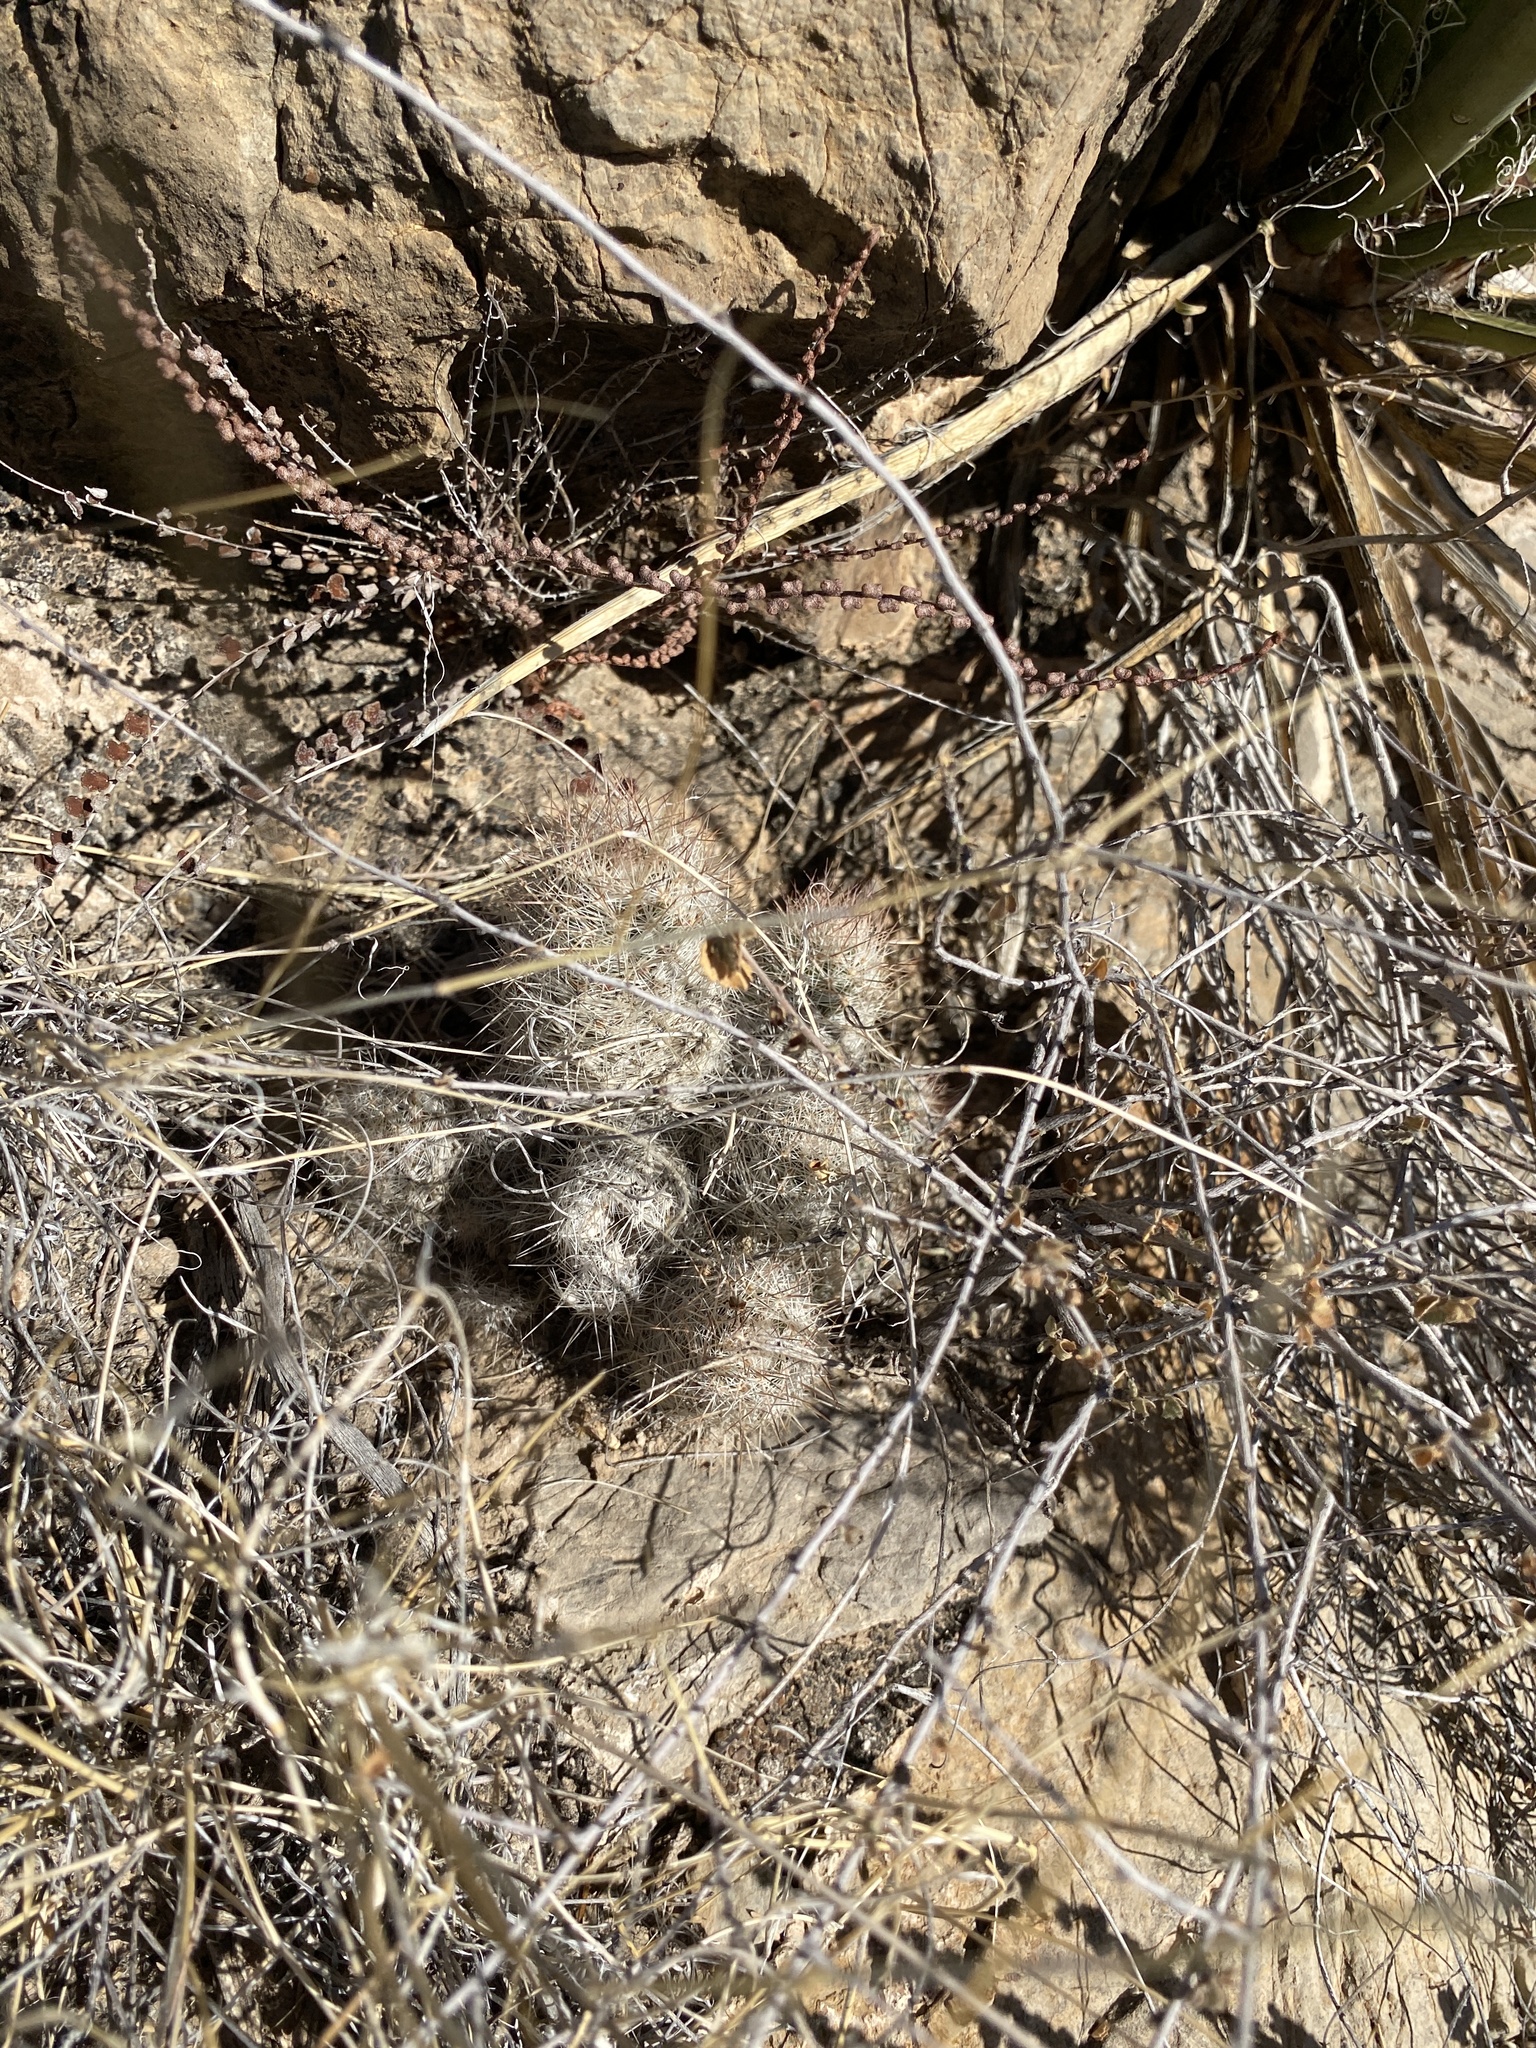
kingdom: Plantae
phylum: Tracheophyta
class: Magnoliopsida
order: Caryophyllales
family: Cactaceae
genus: Pelecyphora
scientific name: Pelecyphora tuberculosa
